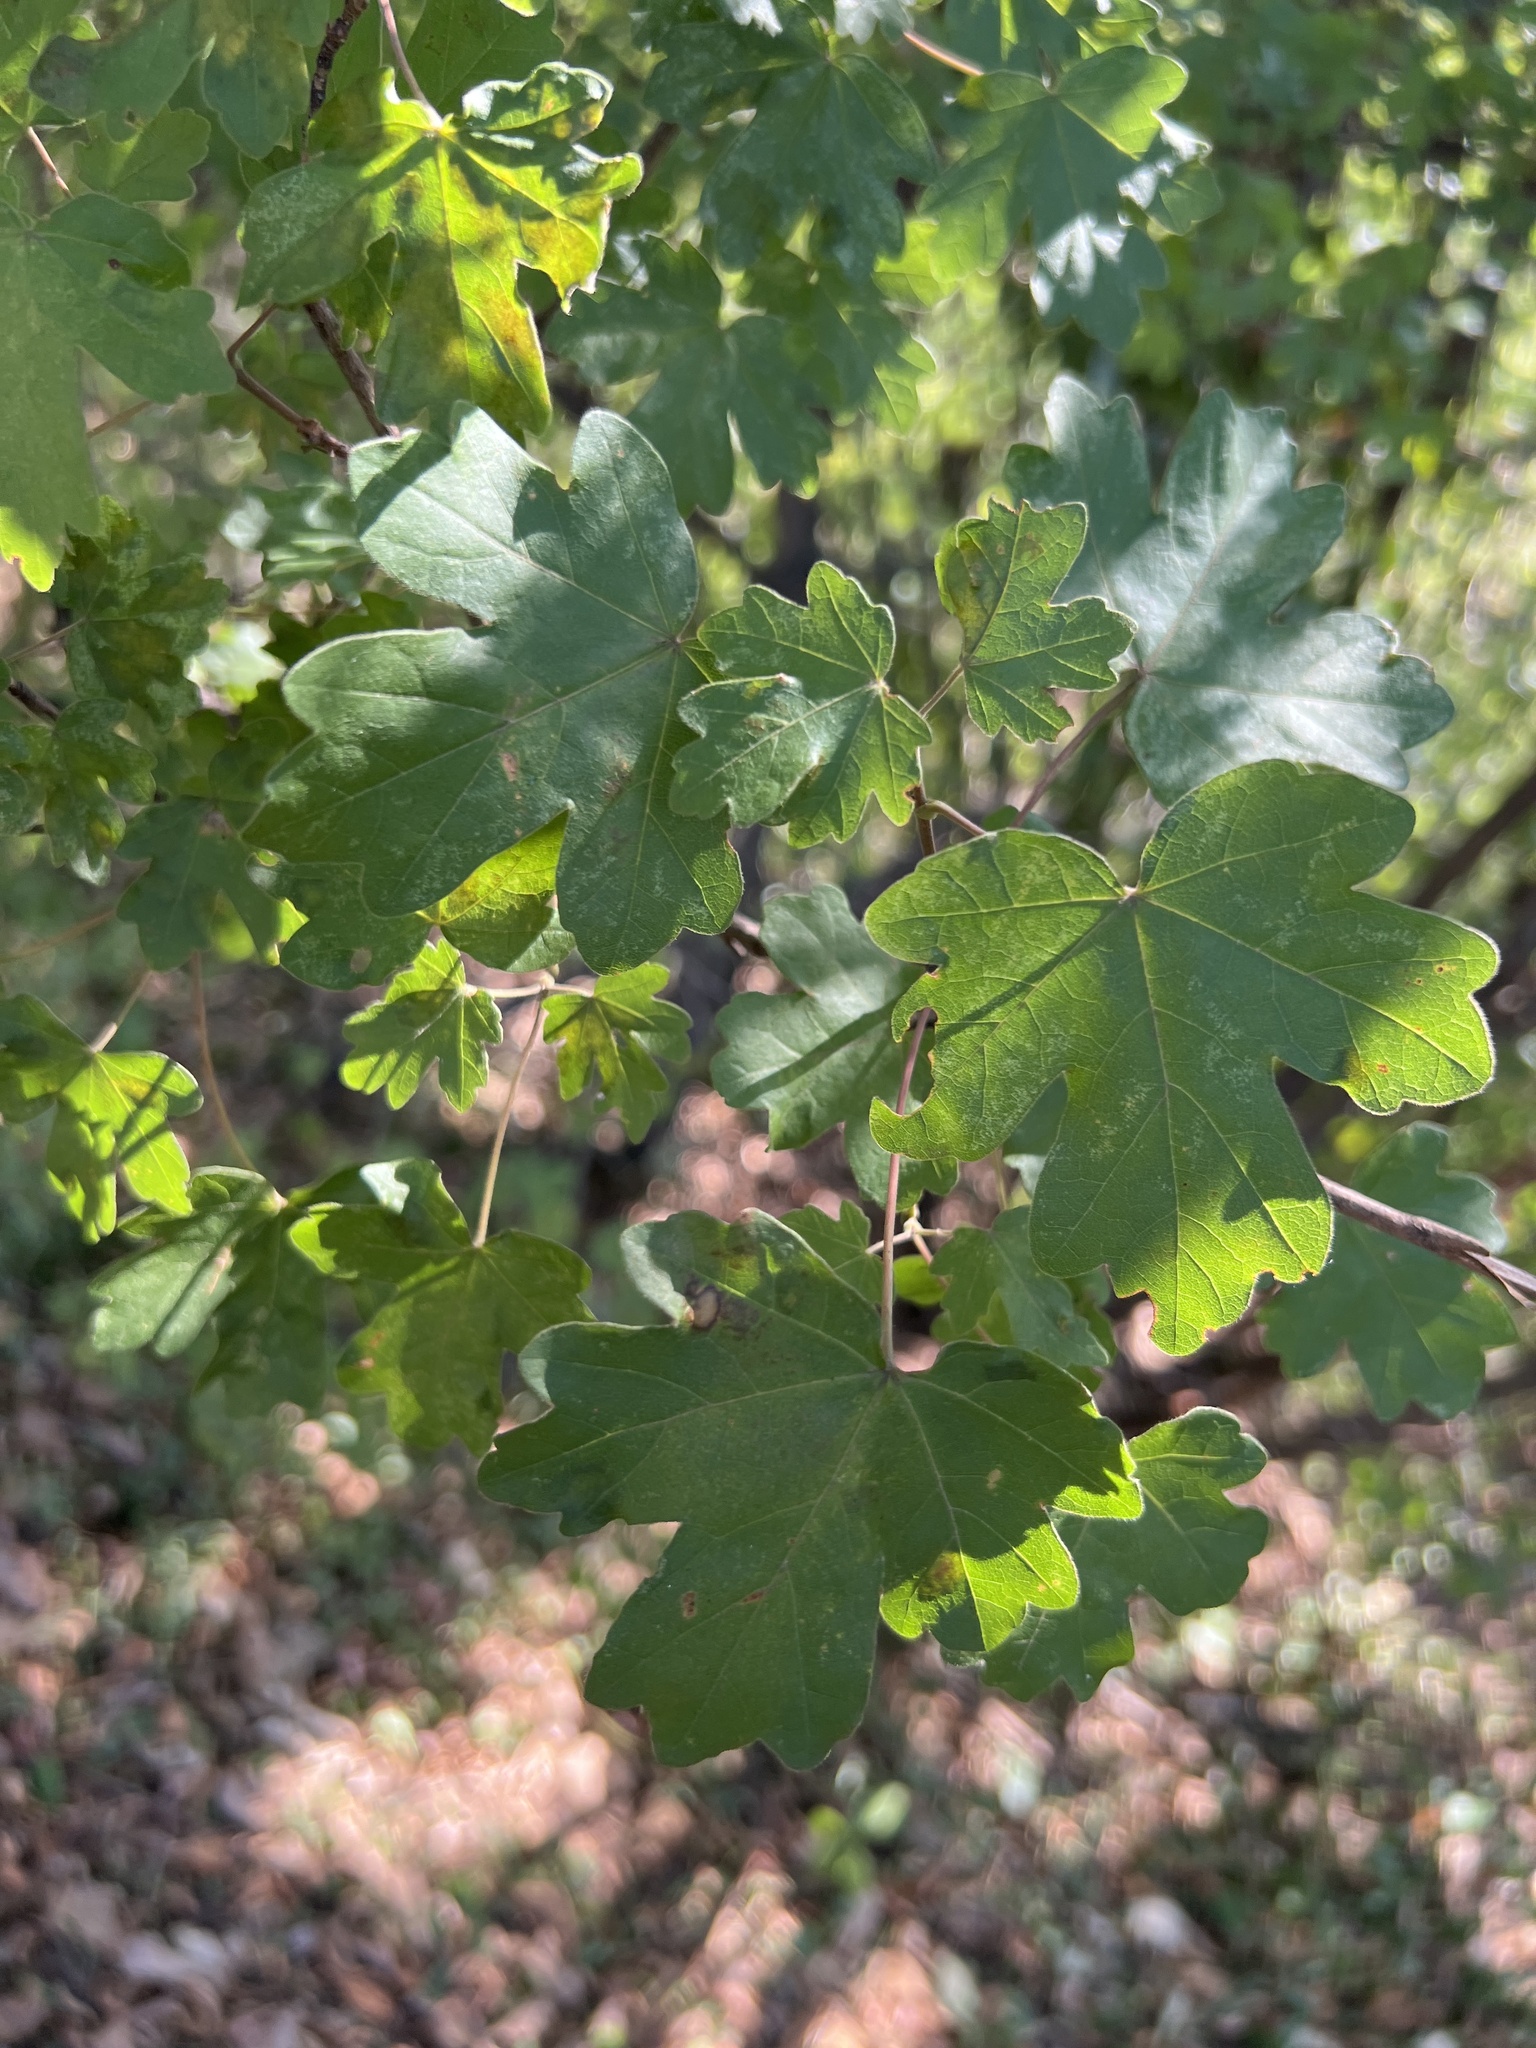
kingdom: Plantae
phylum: Tracheophyta
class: Magnoliopsida
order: Sapindales
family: Sapindaceae
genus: Acer
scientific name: Acer campestre
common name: Field maple
